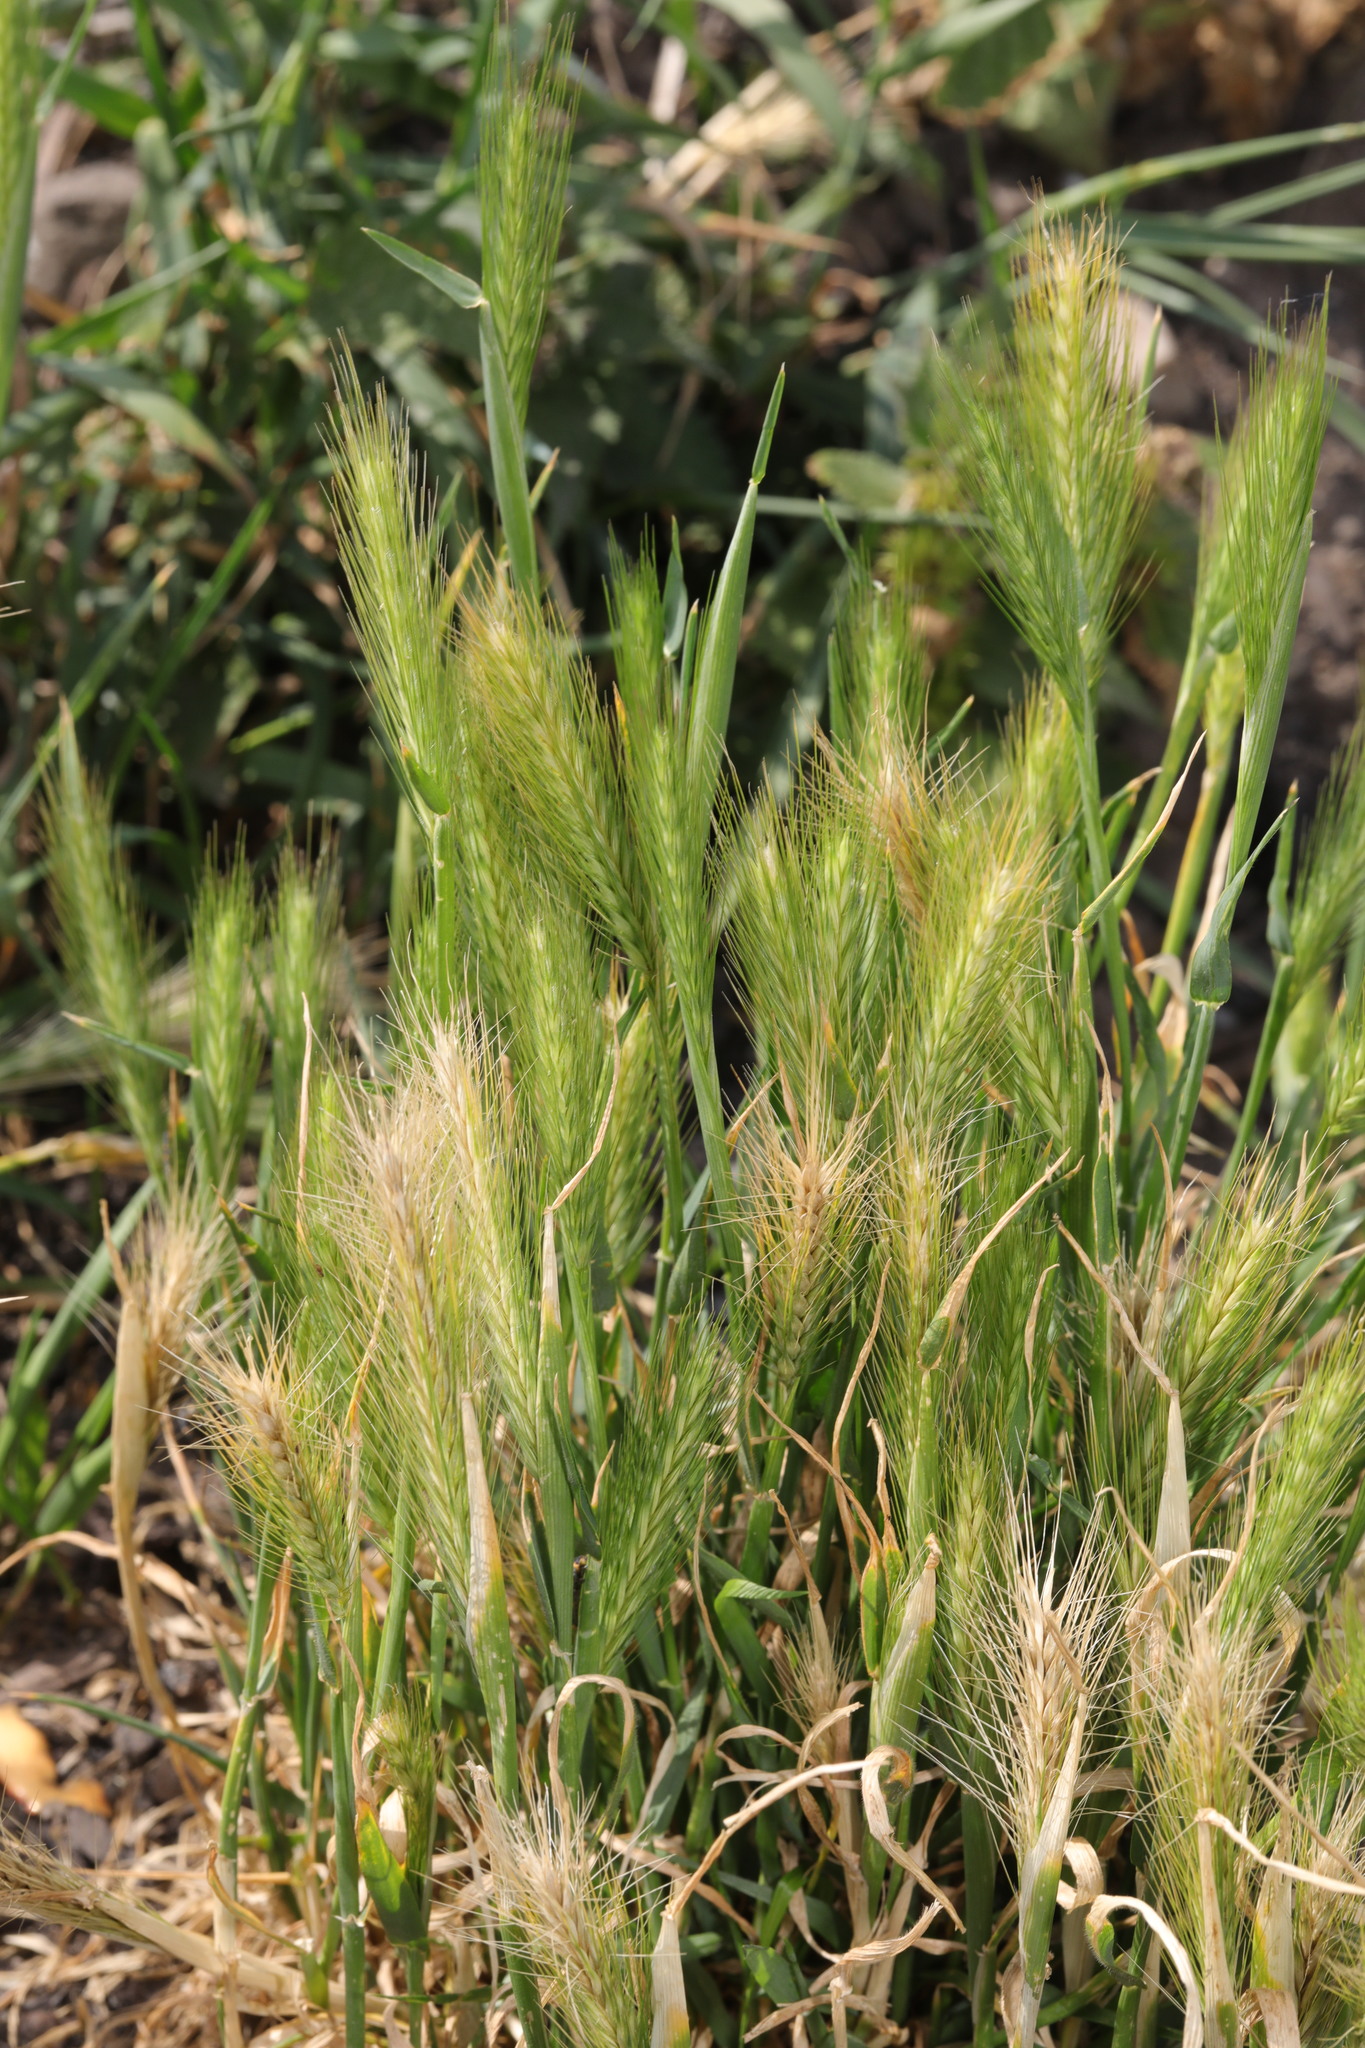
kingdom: Plantae
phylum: Tracheophyta
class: Liliopsida
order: Poales
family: Poaceae
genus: Hordeum
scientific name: Hordeum murinum
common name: Wall barley
